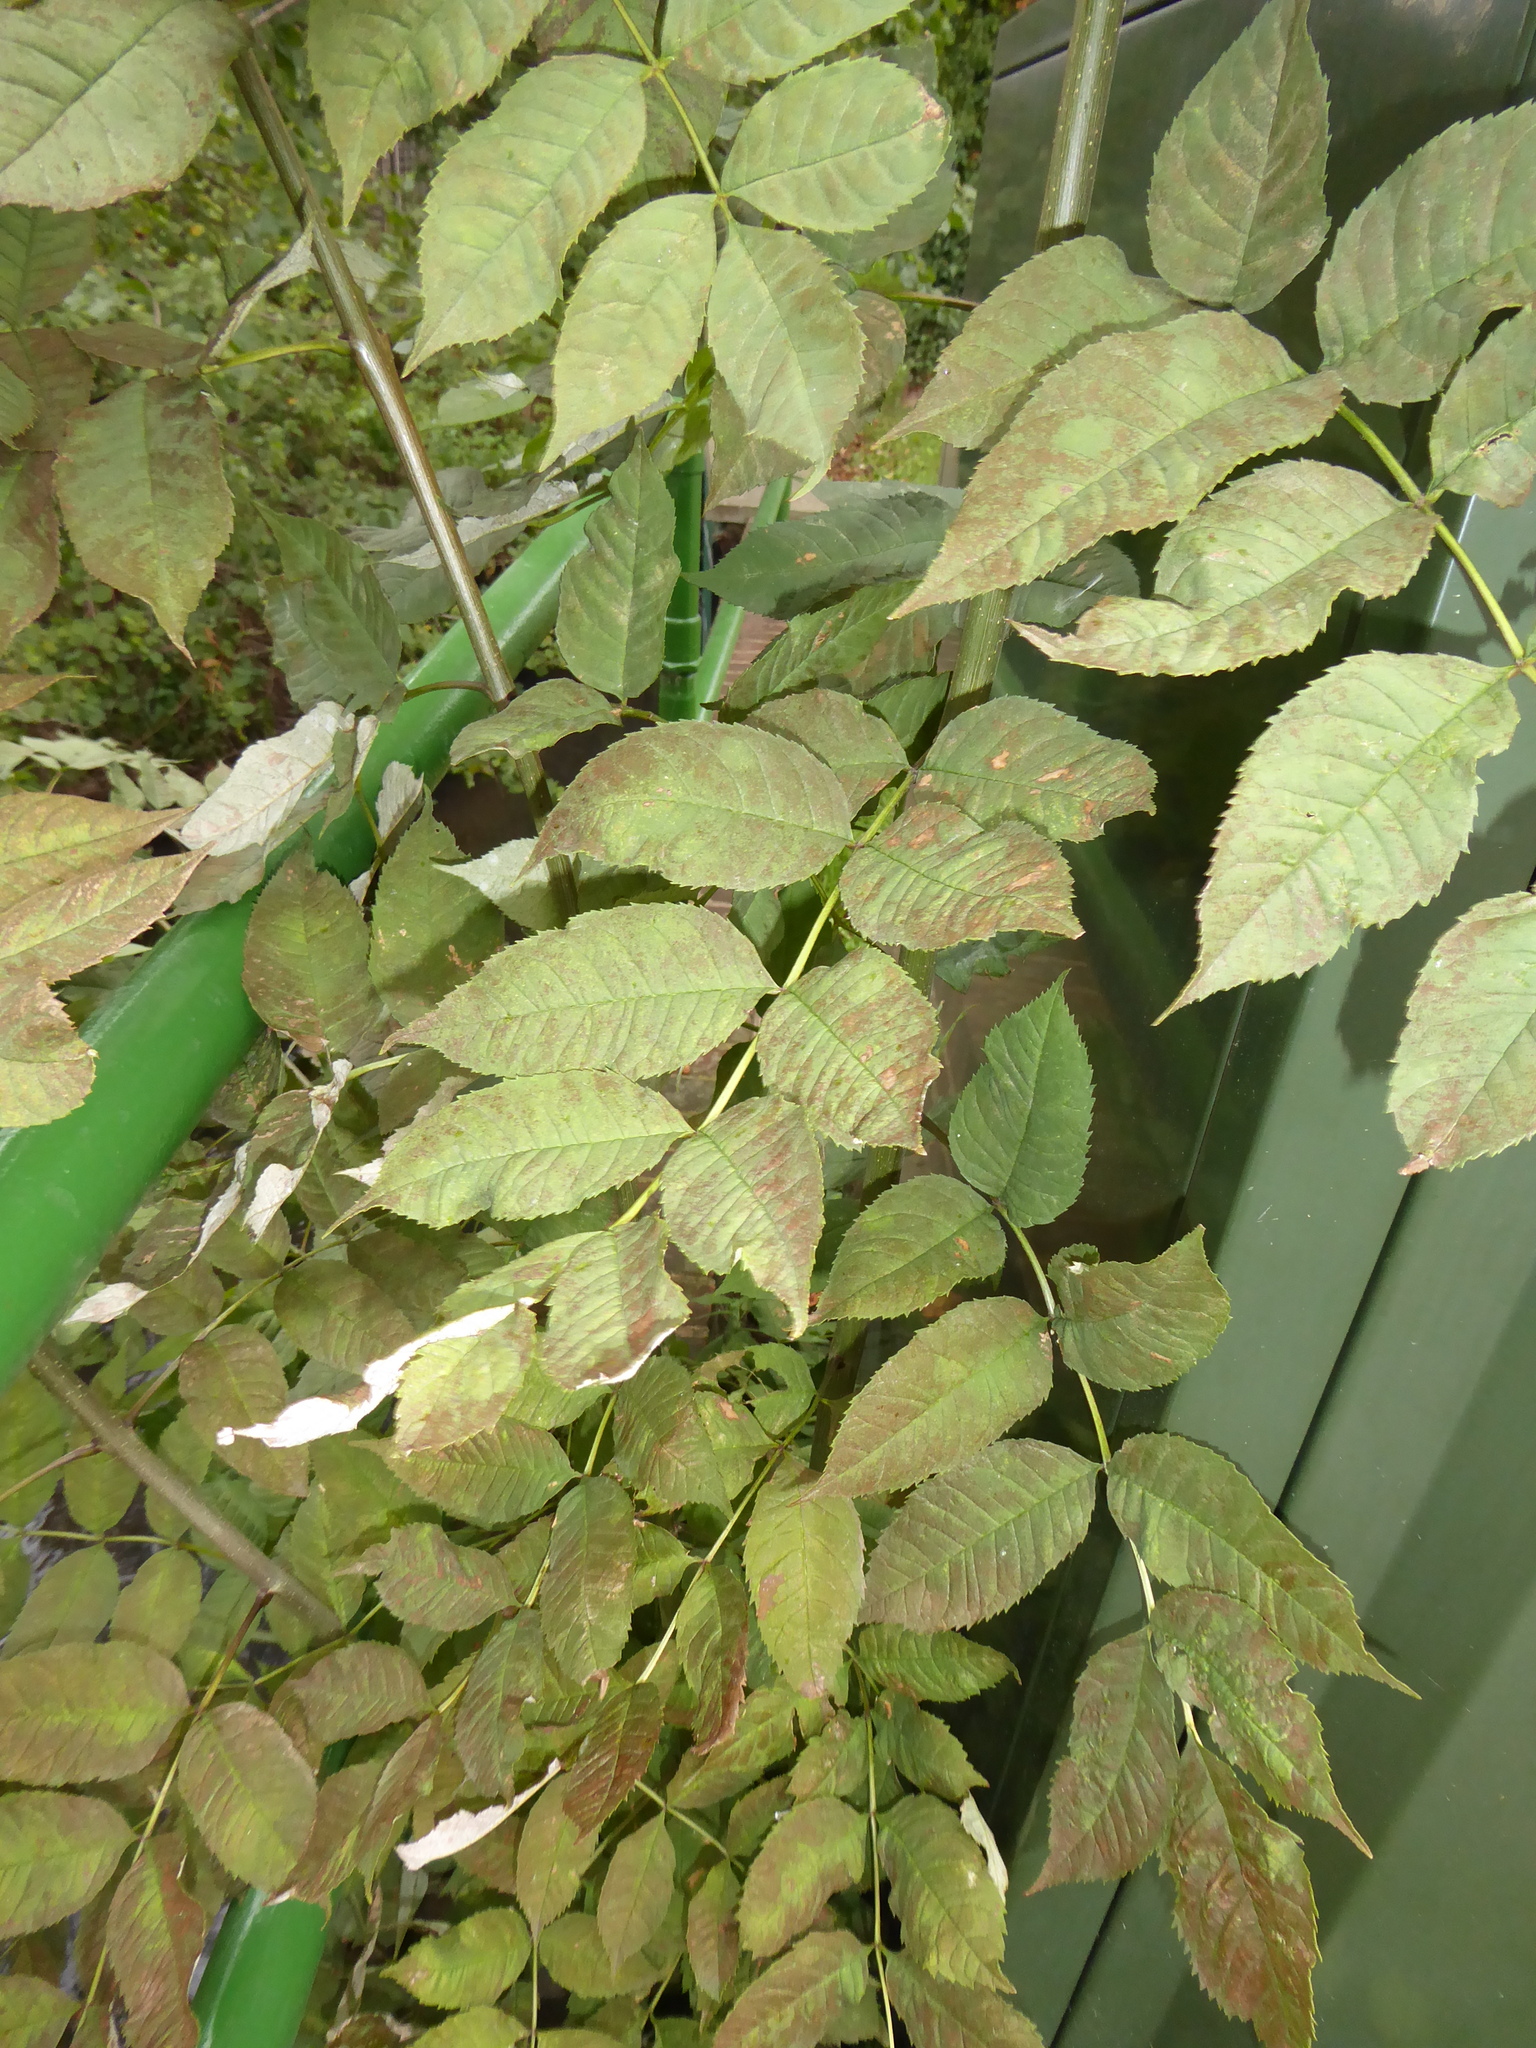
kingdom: Plantae
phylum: Tracheophyta
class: Magnoliopsida
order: Lamiales
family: Oleaceae
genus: Fraxinus
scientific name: Fraxinus excelsior
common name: European ash
